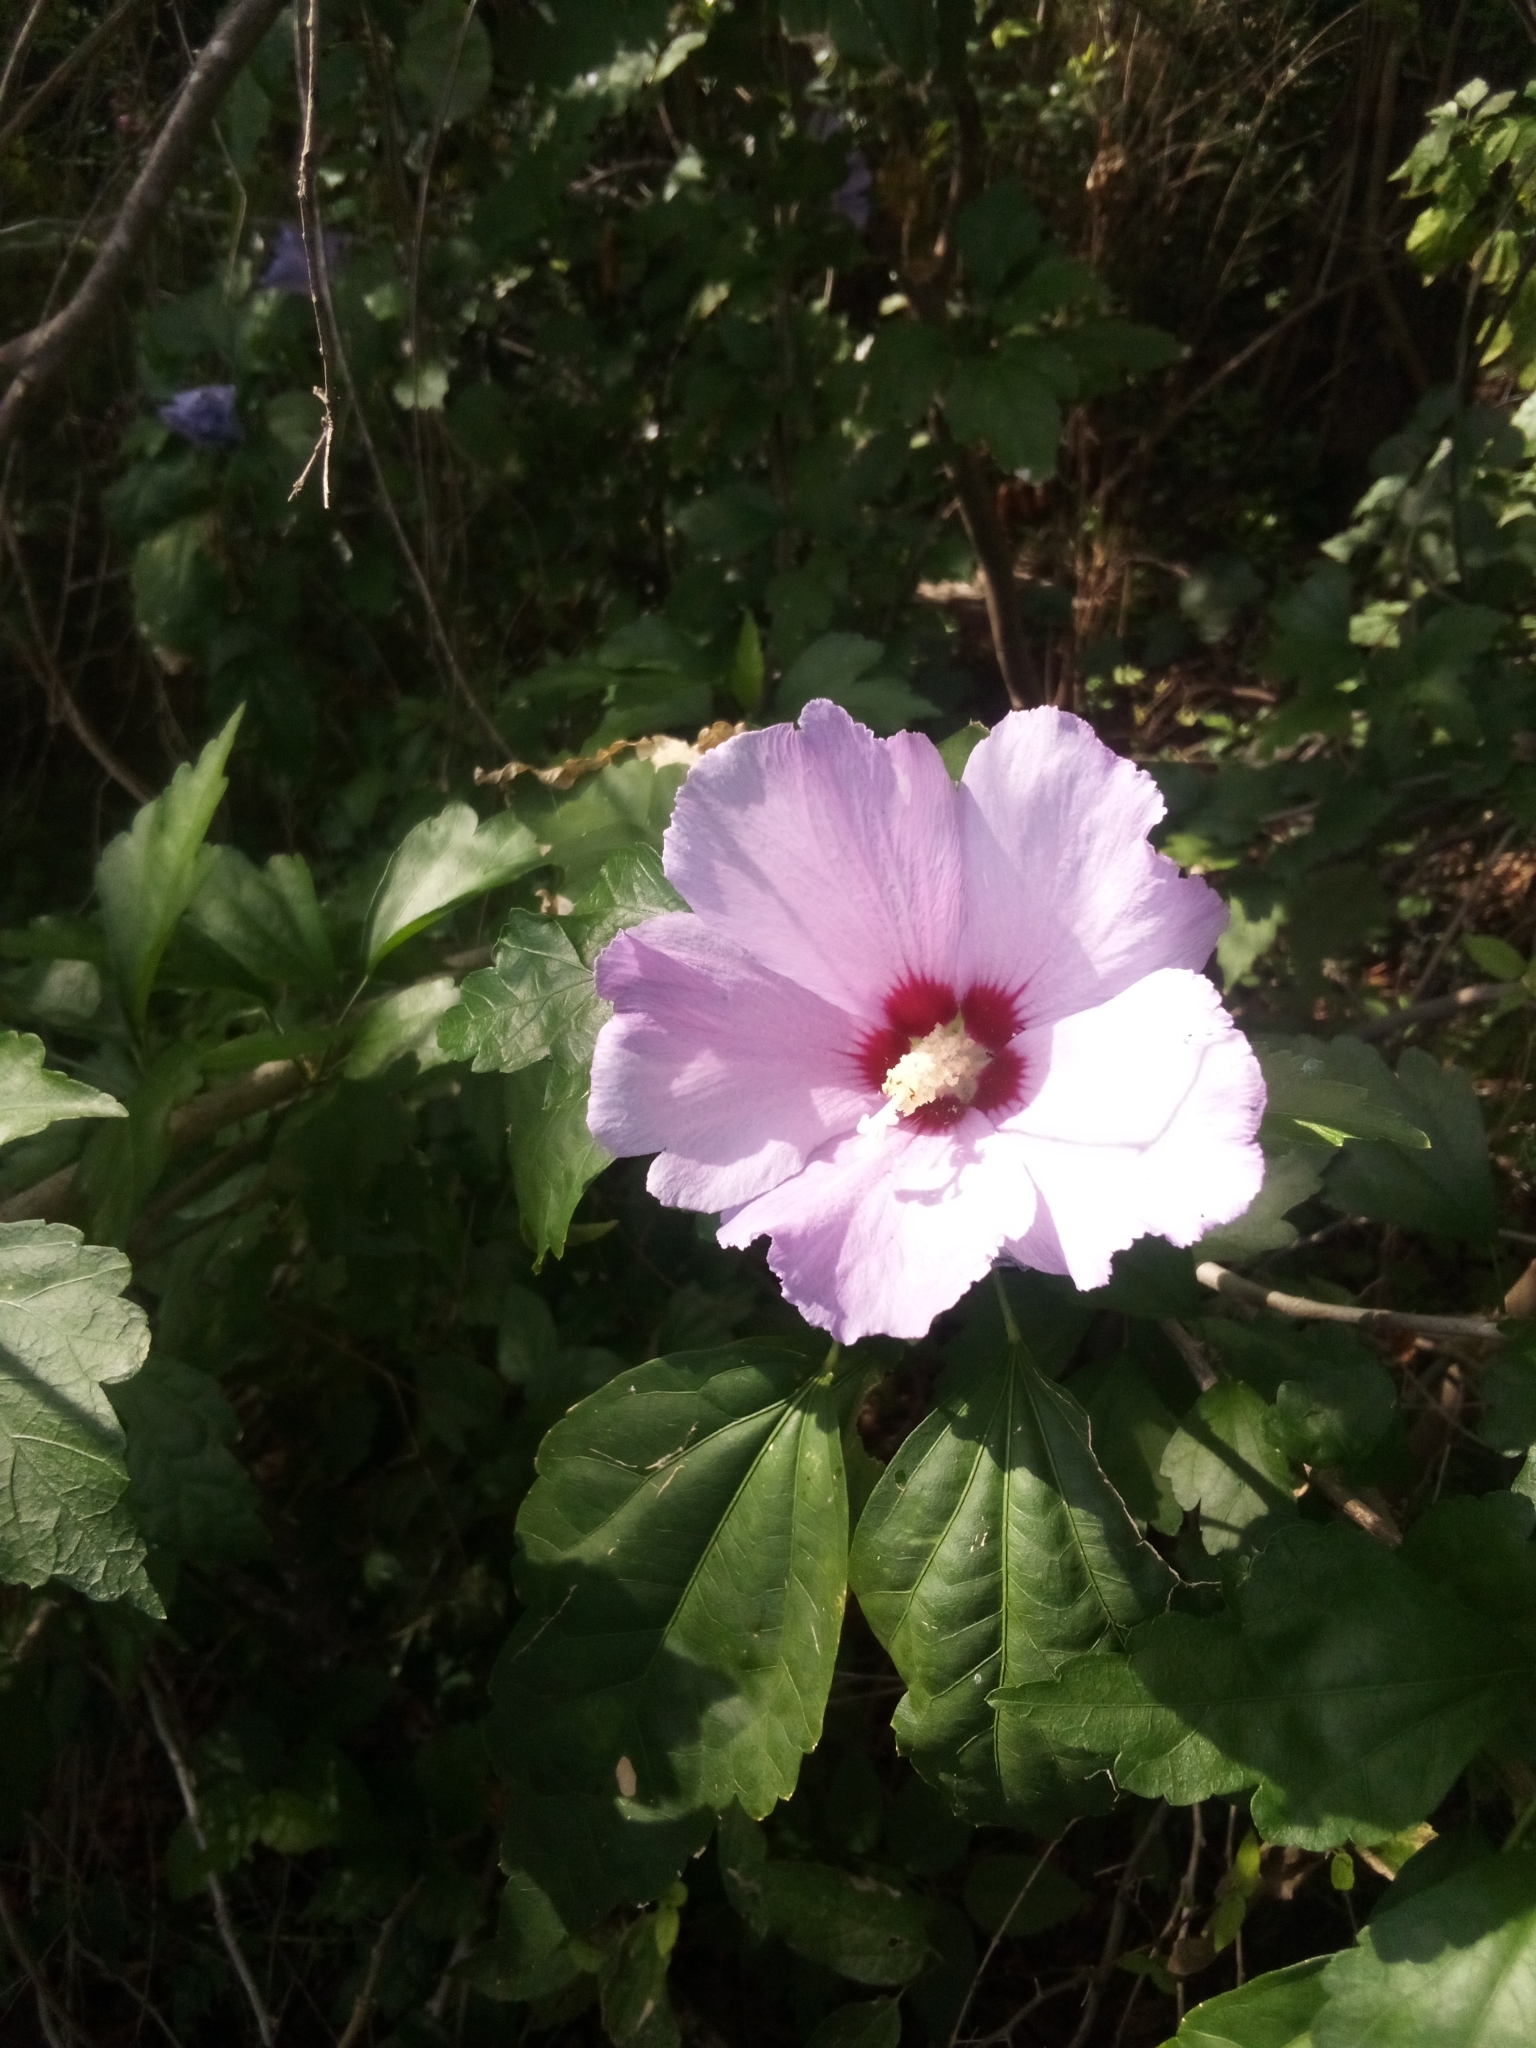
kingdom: Plantae
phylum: Tracheophyta
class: Magnoliopsida
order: Malvales
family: Malvaceae
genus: Hibiscus
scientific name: Hibiscus syriacus
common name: Syrian ketmia
